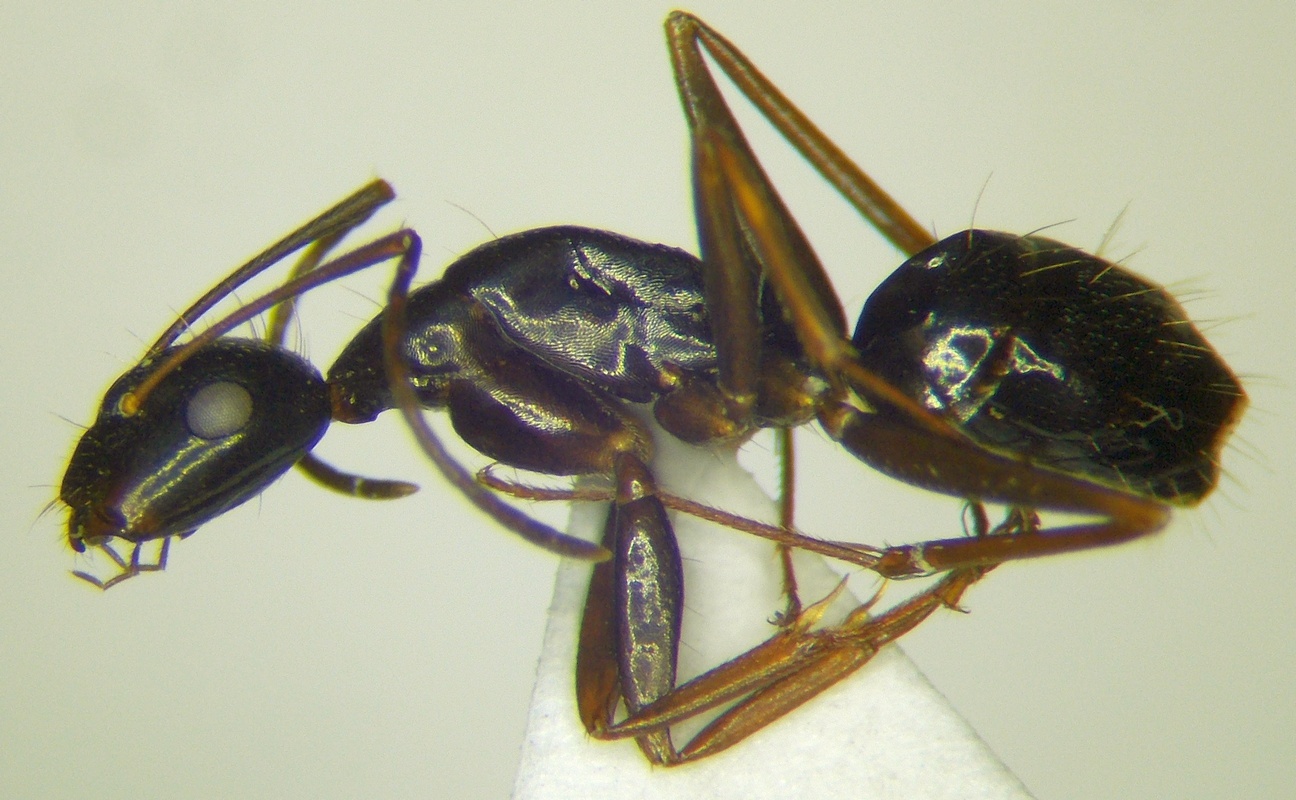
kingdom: Animalia
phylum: Arthropoda
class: Insecta
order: Hymenoptera
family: Formicidae
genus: Camponotus
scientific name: Camponotus aethiops
